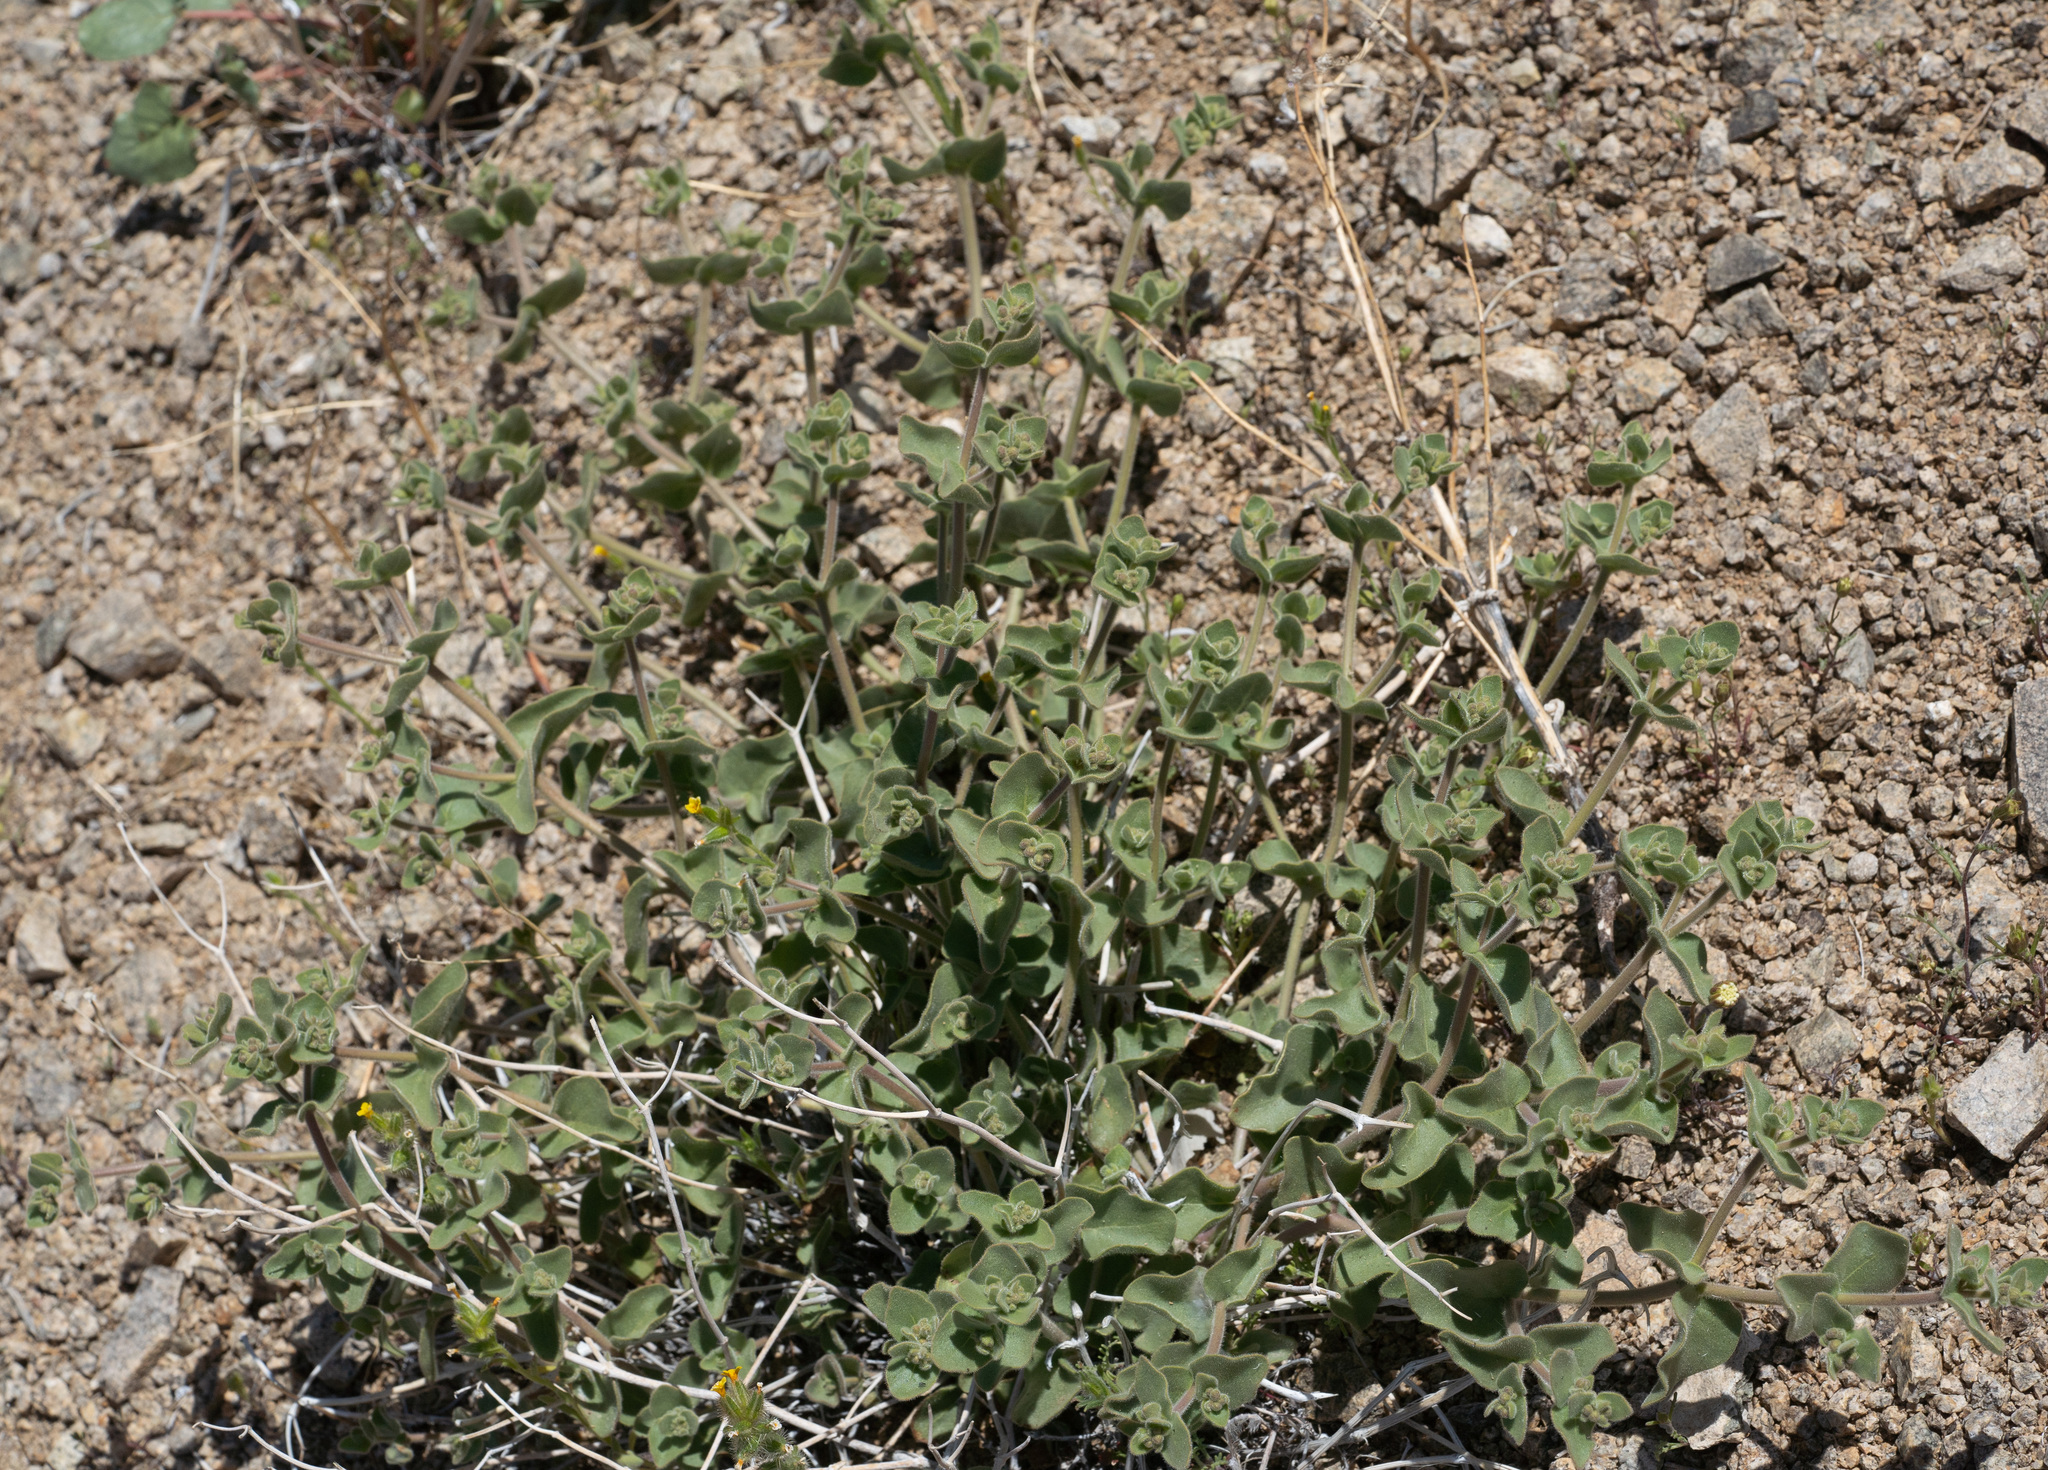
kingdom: Plantae
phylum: Tracheophyta
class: Magnoliopsida
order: Caryophyllales
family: Nyctaginaceae
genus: Mirabilis
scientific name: Mirabilis laevis
